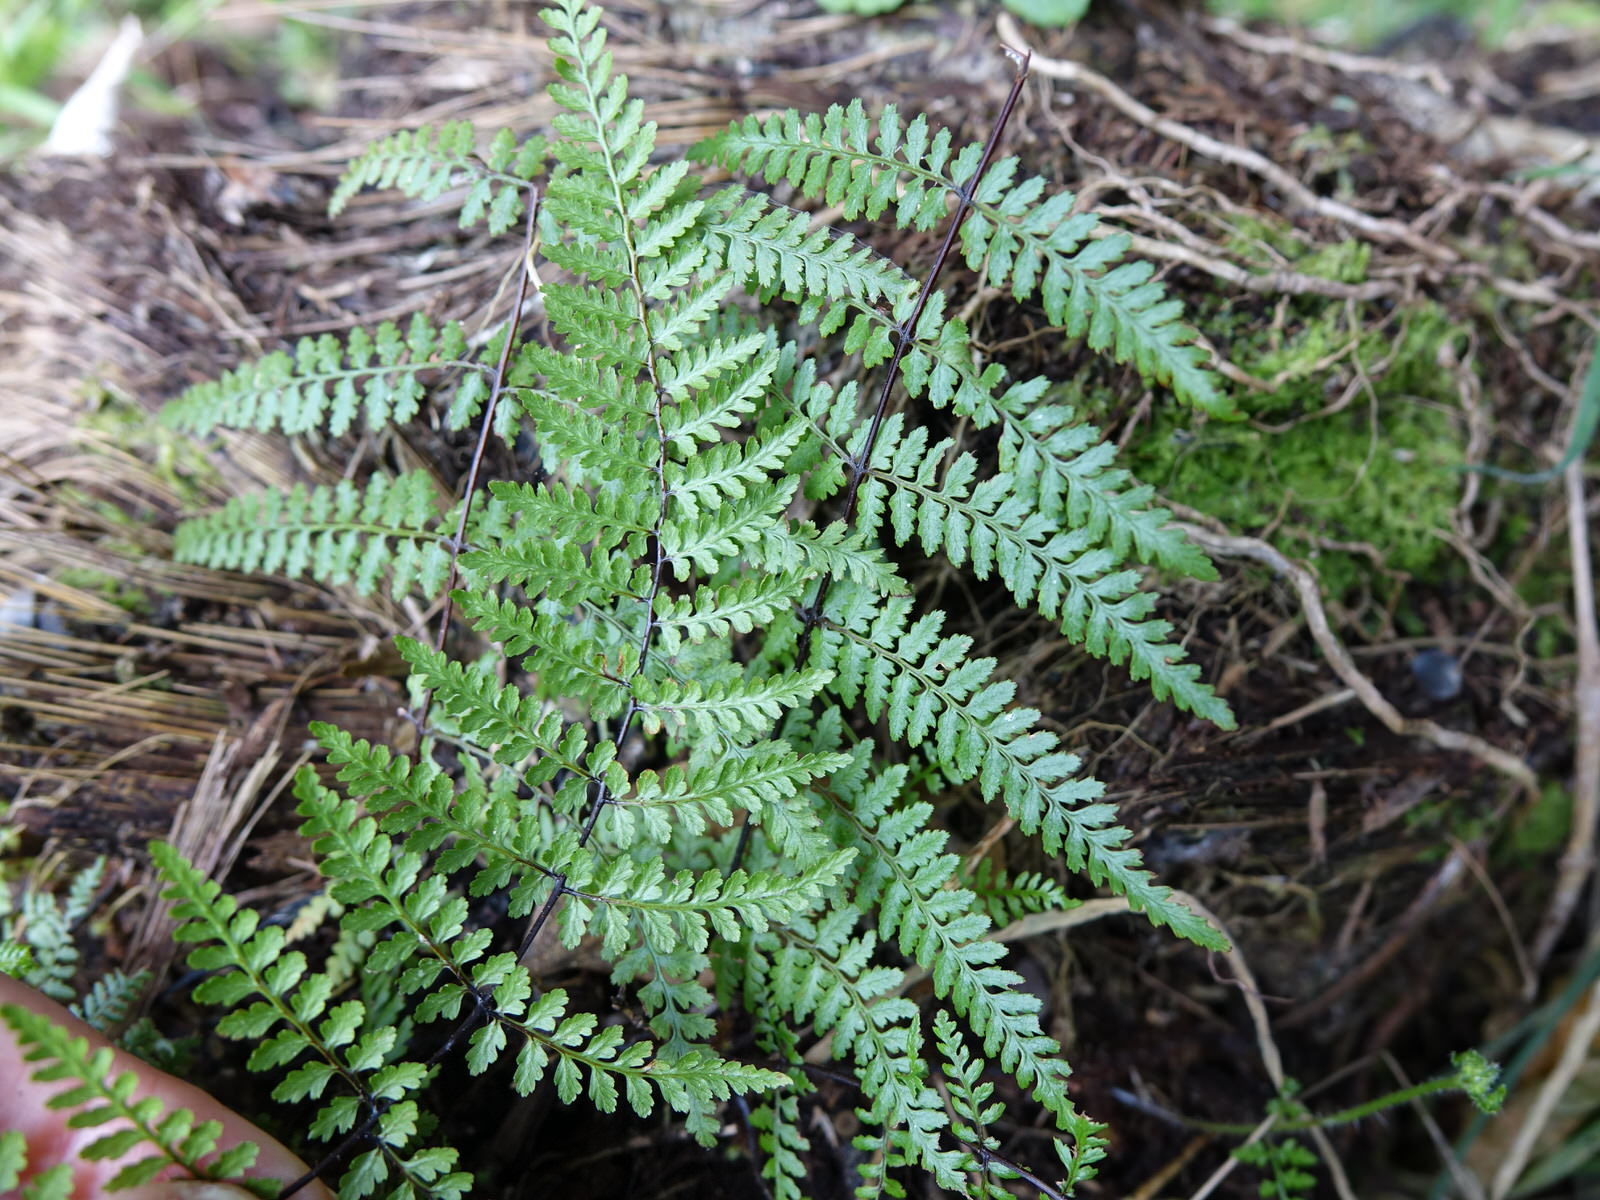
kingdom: Plantae
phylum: Tracheophyta
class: Polypodiopsida
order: Polypodiales
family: Dennstaedtiaceae
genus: Hiya
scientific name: Hiya distans
